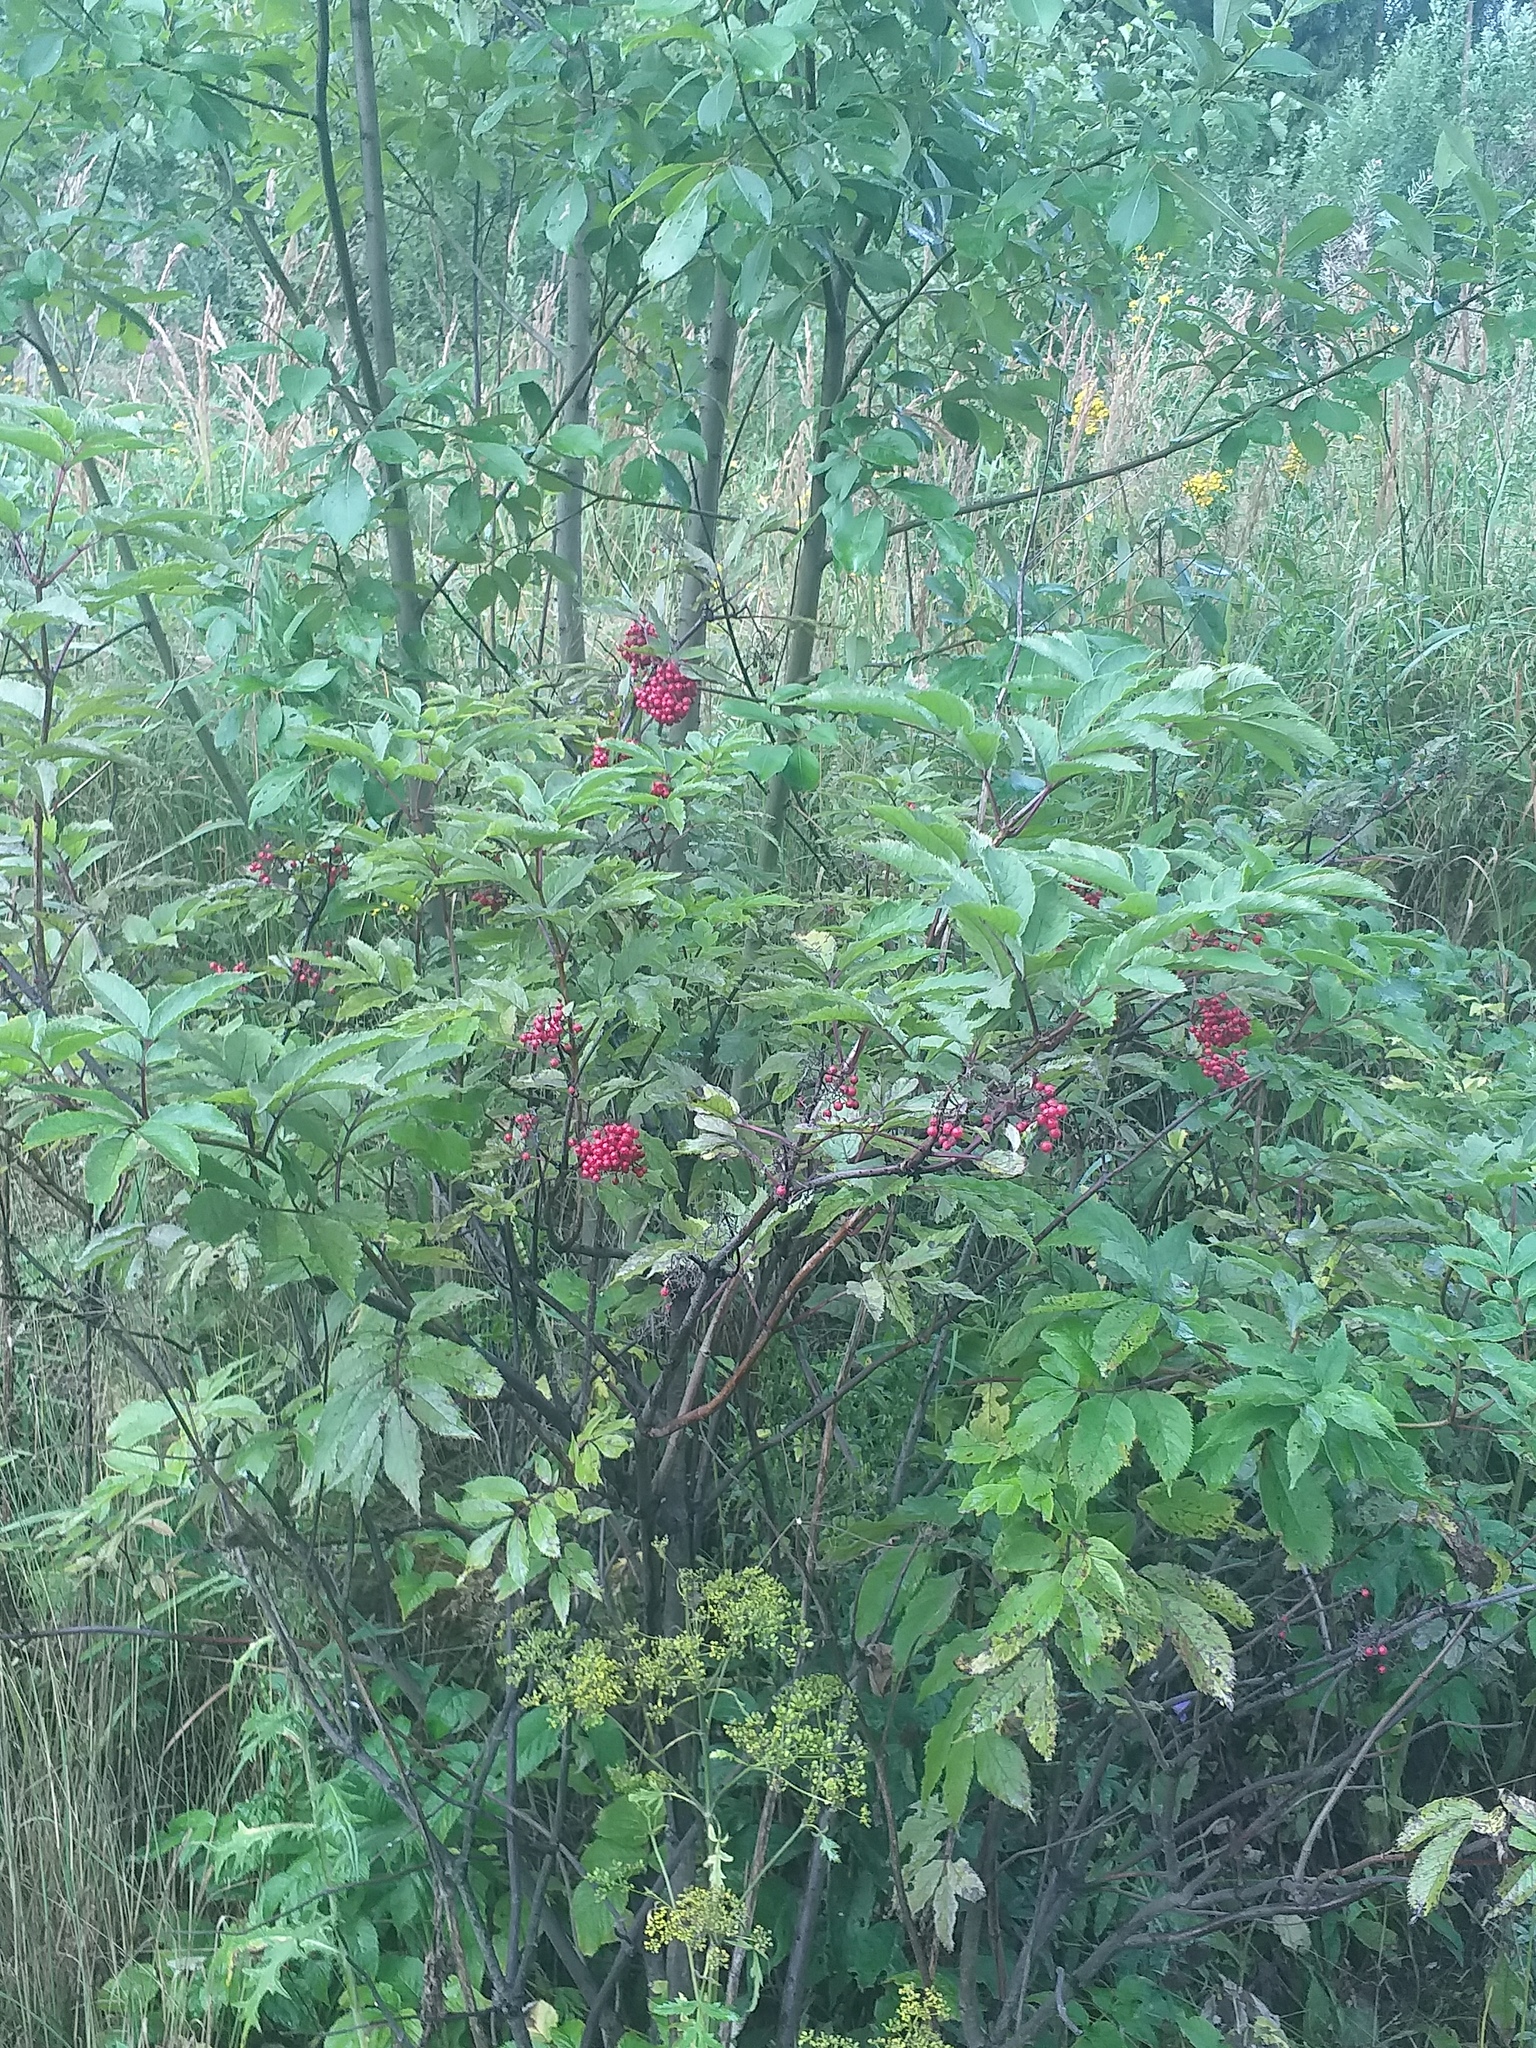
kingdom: Plantae
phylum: Tracheophyta
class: Magnoliopsida
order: Dipsacales
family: Viburnaceae
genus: Sambucus
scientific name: Sambucus racemosa
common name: Red-berried elder
